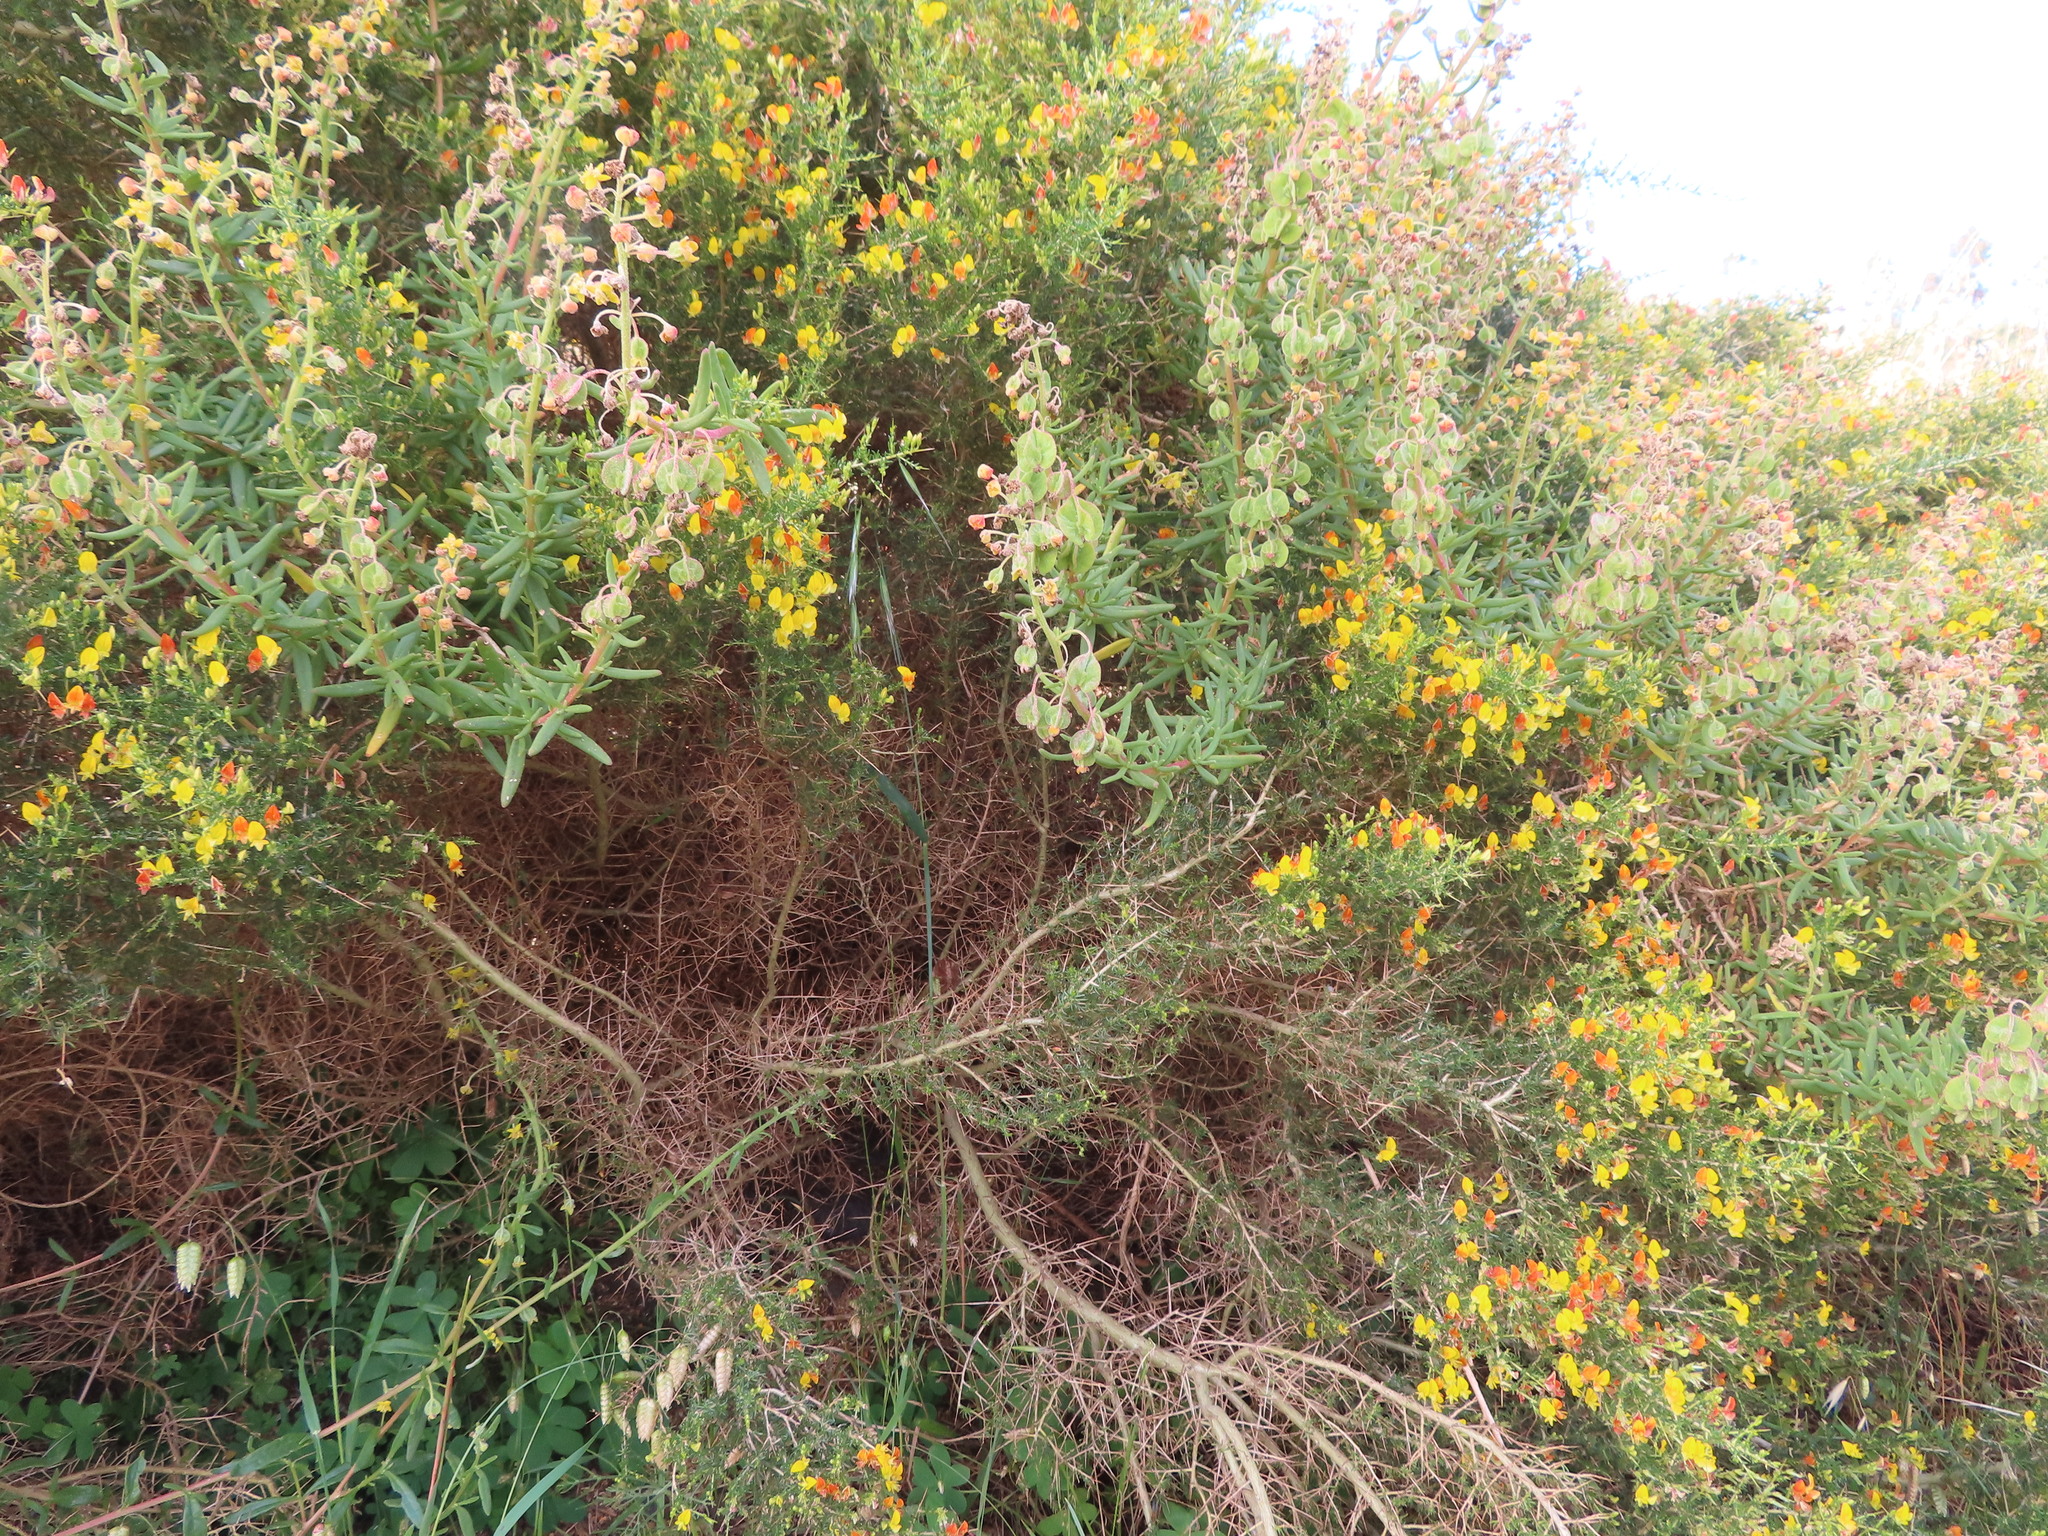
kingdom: Plantae
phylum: Tracheophyta
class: Magnoliopsida
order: Fabales
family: Fabaceae
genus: Aspalathus
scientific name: Aspalathus spinosa
